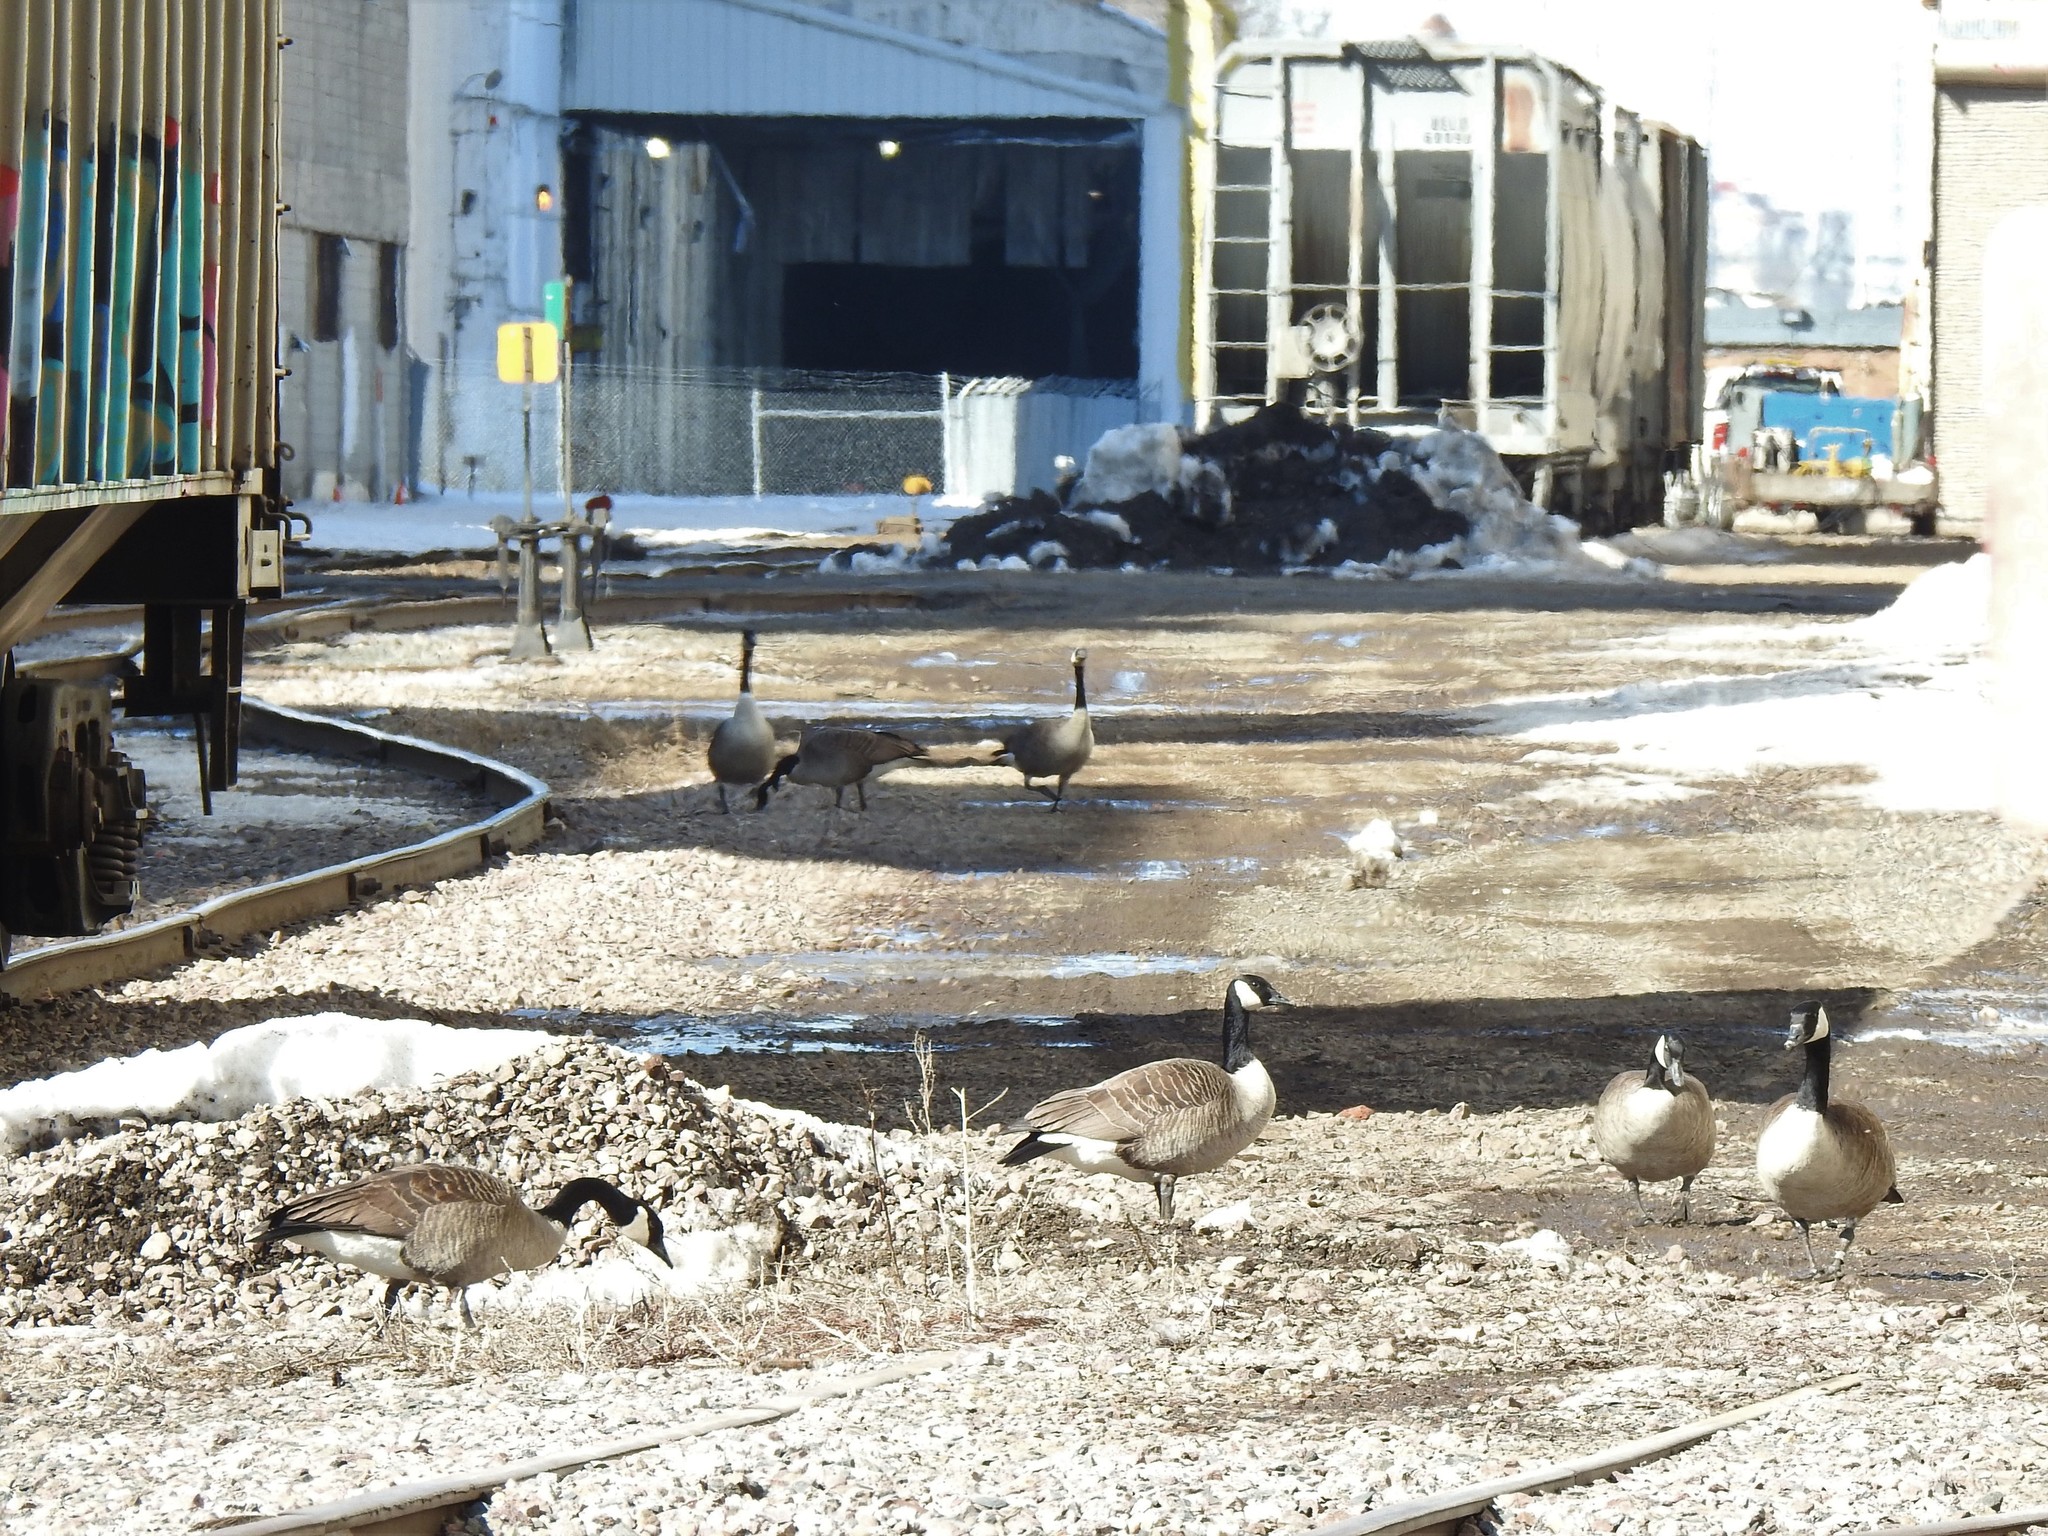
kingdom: Animalia
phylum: Chordata
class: Aves
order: Anseriformes
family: Anatidae
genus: Branta
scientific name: Branta canadensis
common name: Canada goose
